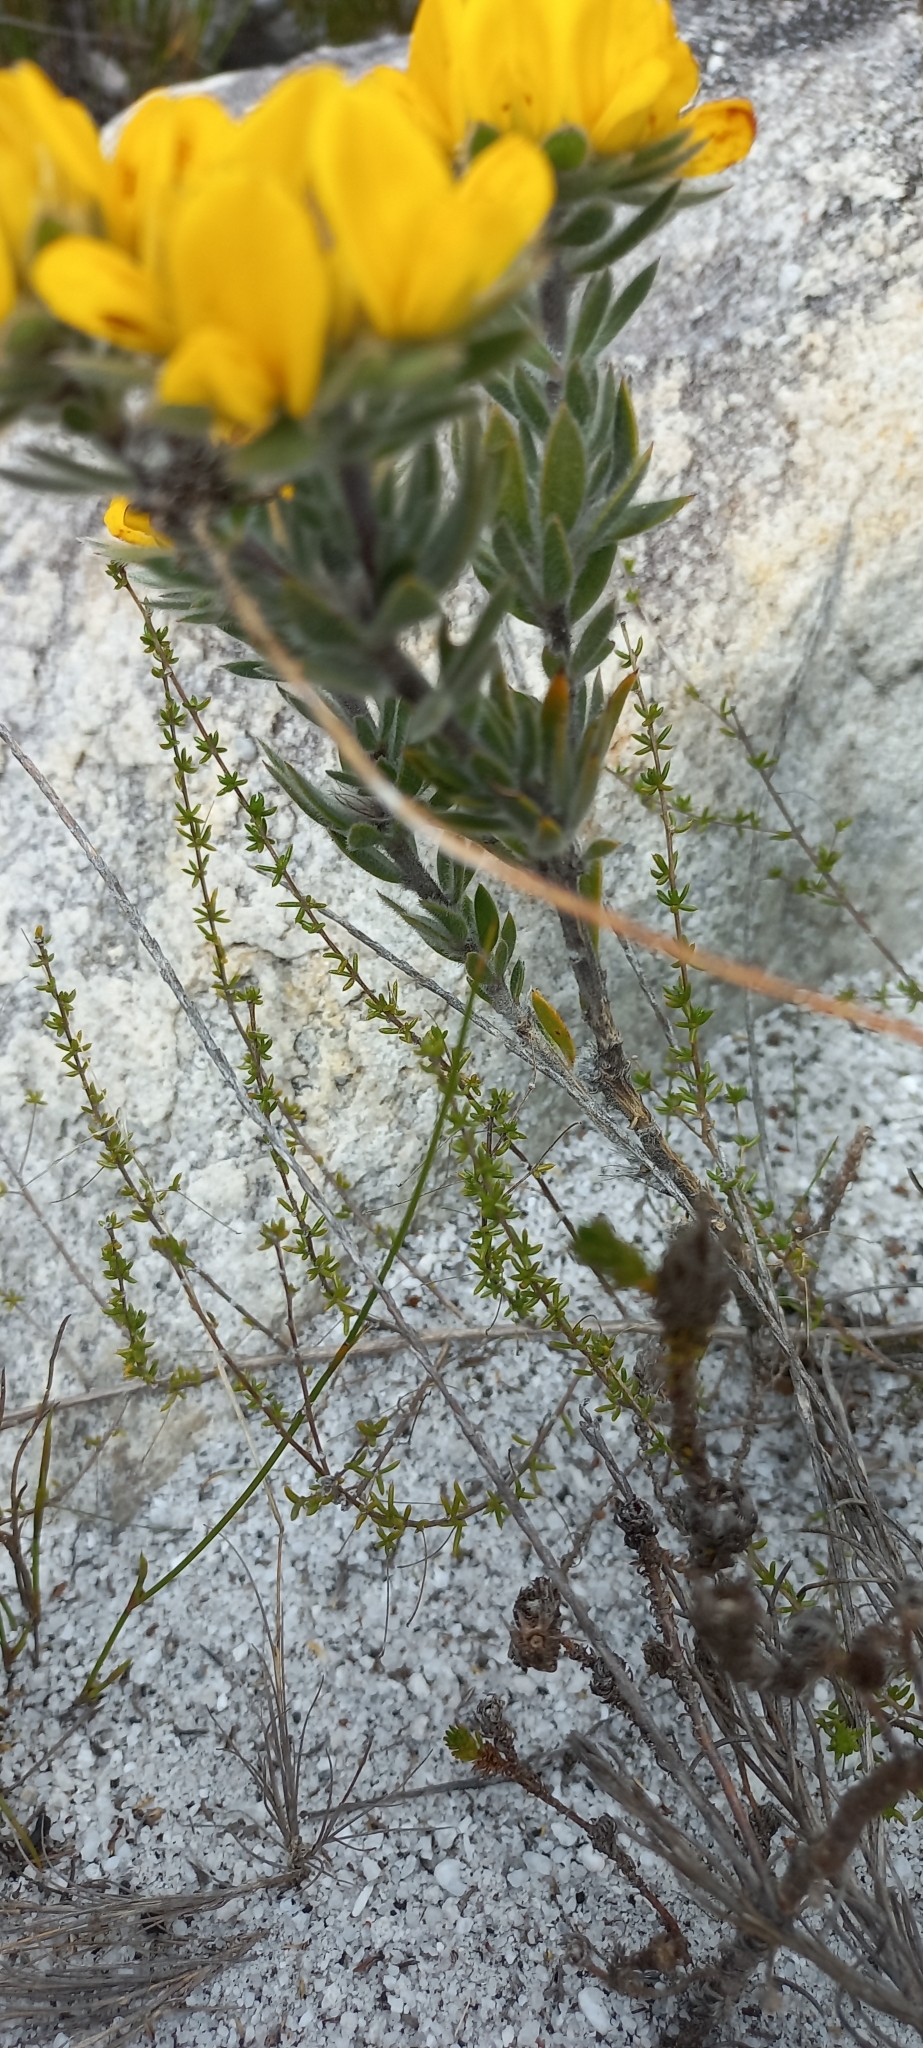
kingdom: Plantae
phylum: Tracheophyta
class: Magnoliopsida
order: Fabales
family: Fabaceae
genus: Aspalathus
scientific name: Aspalathus aspalathoides
